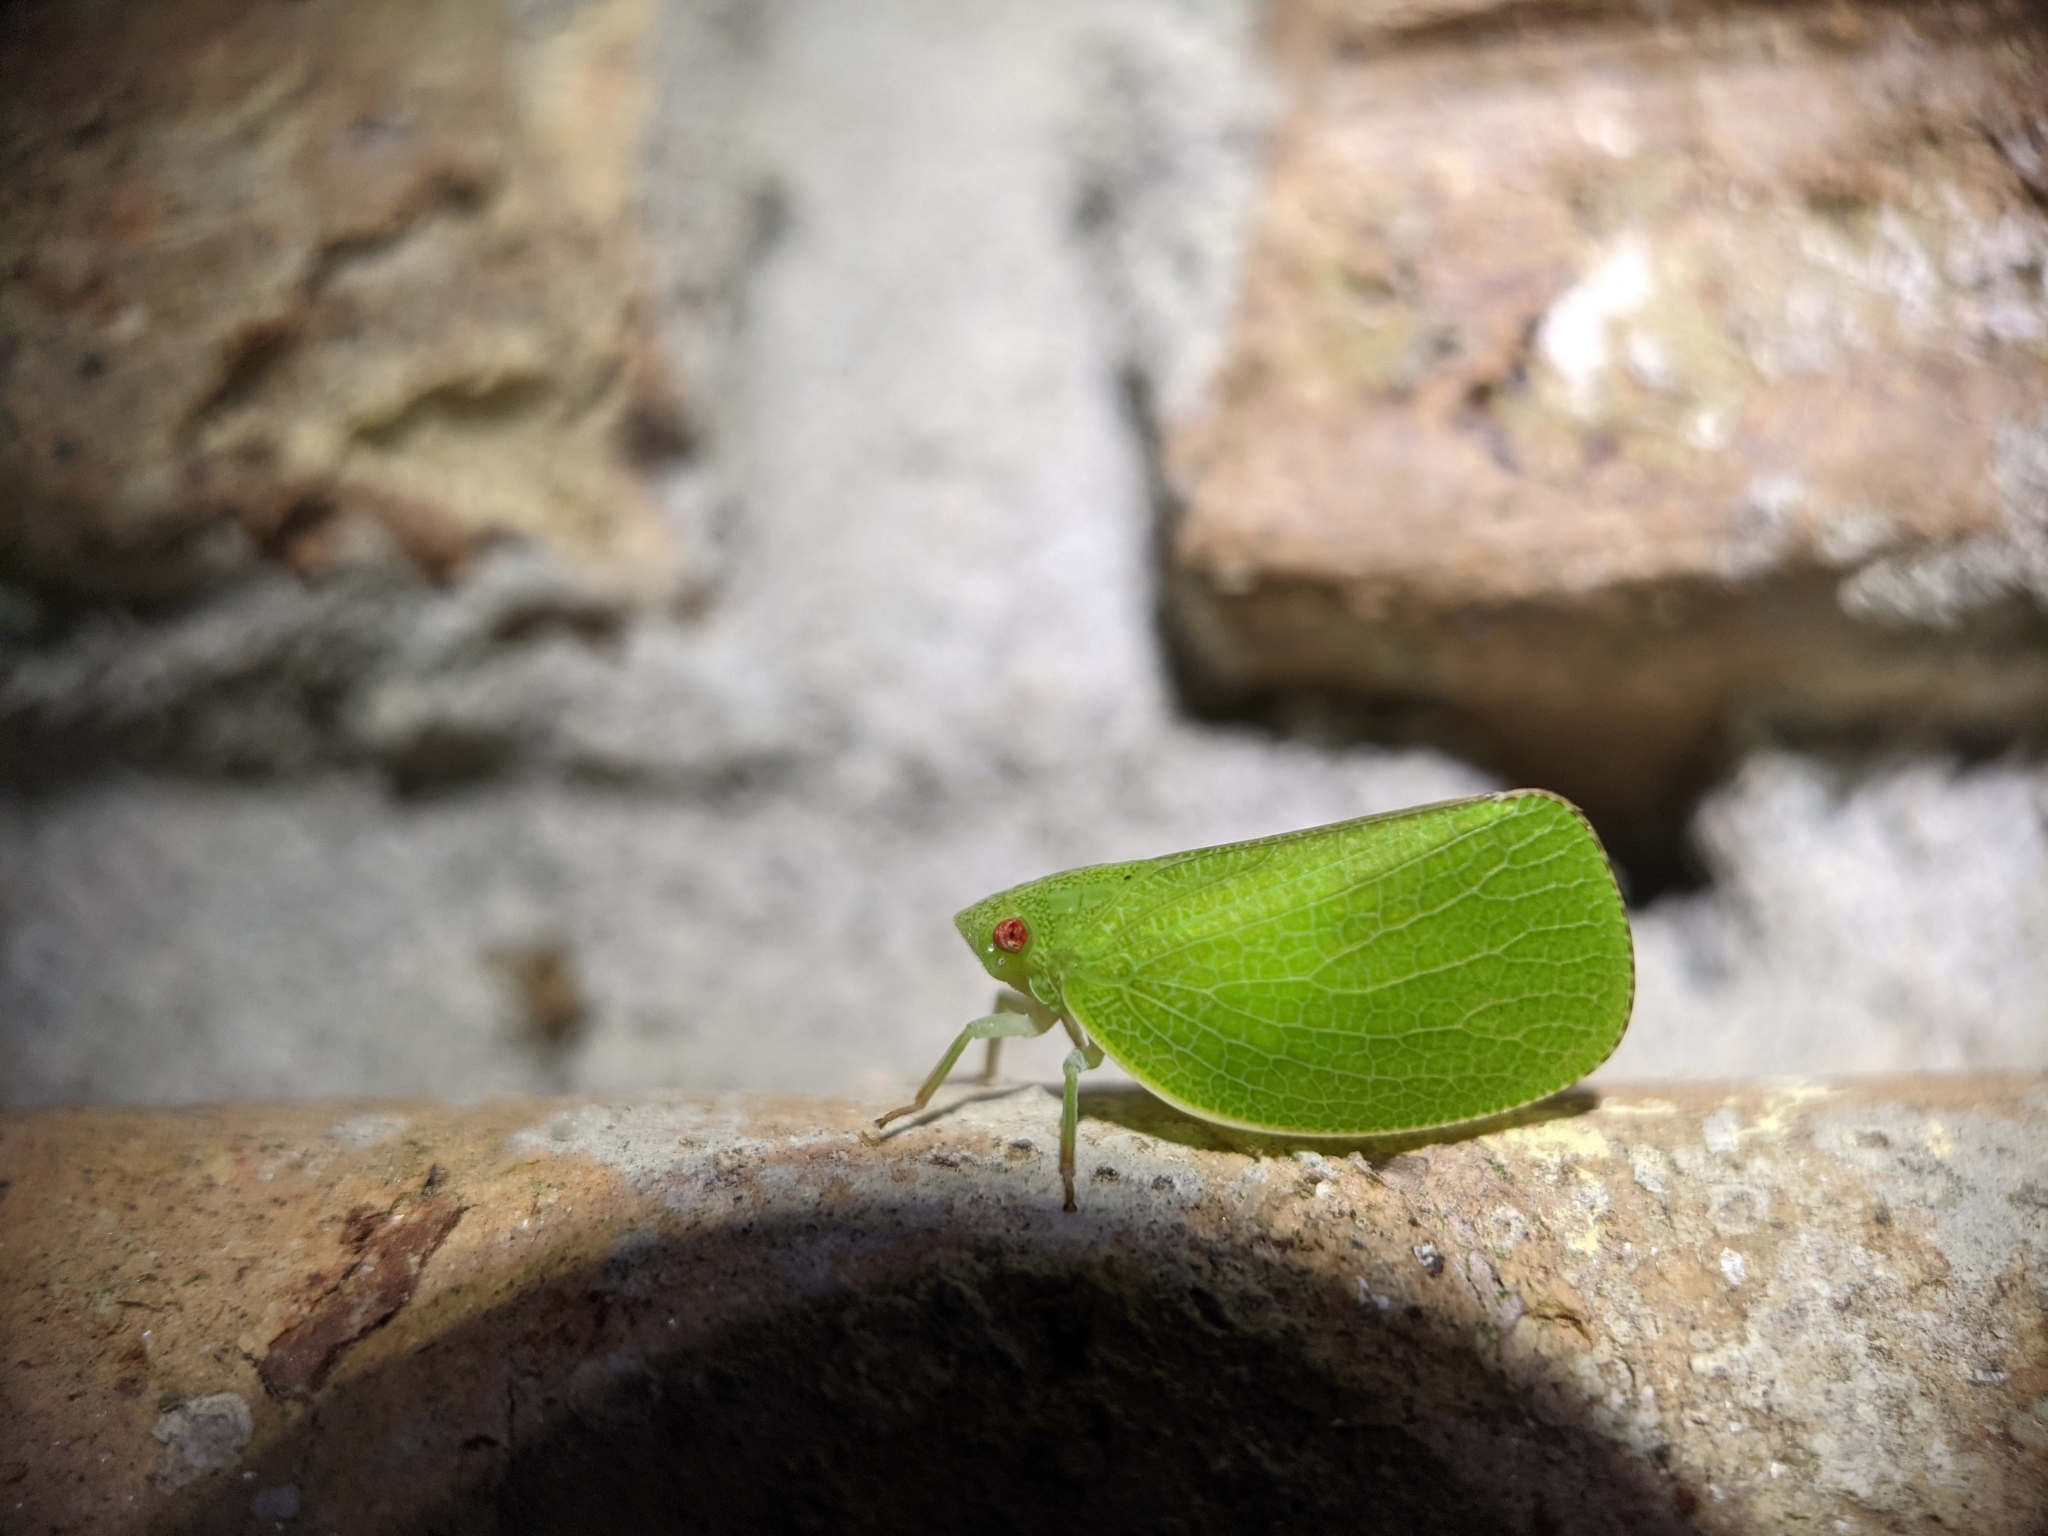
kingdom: Animalia
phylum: Arthropoda
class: Insecta
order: Hemiptera
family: Acanaloniidae
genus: Acanalonia
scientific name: Acanalonia conica
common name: Green cone-headed planthopper
